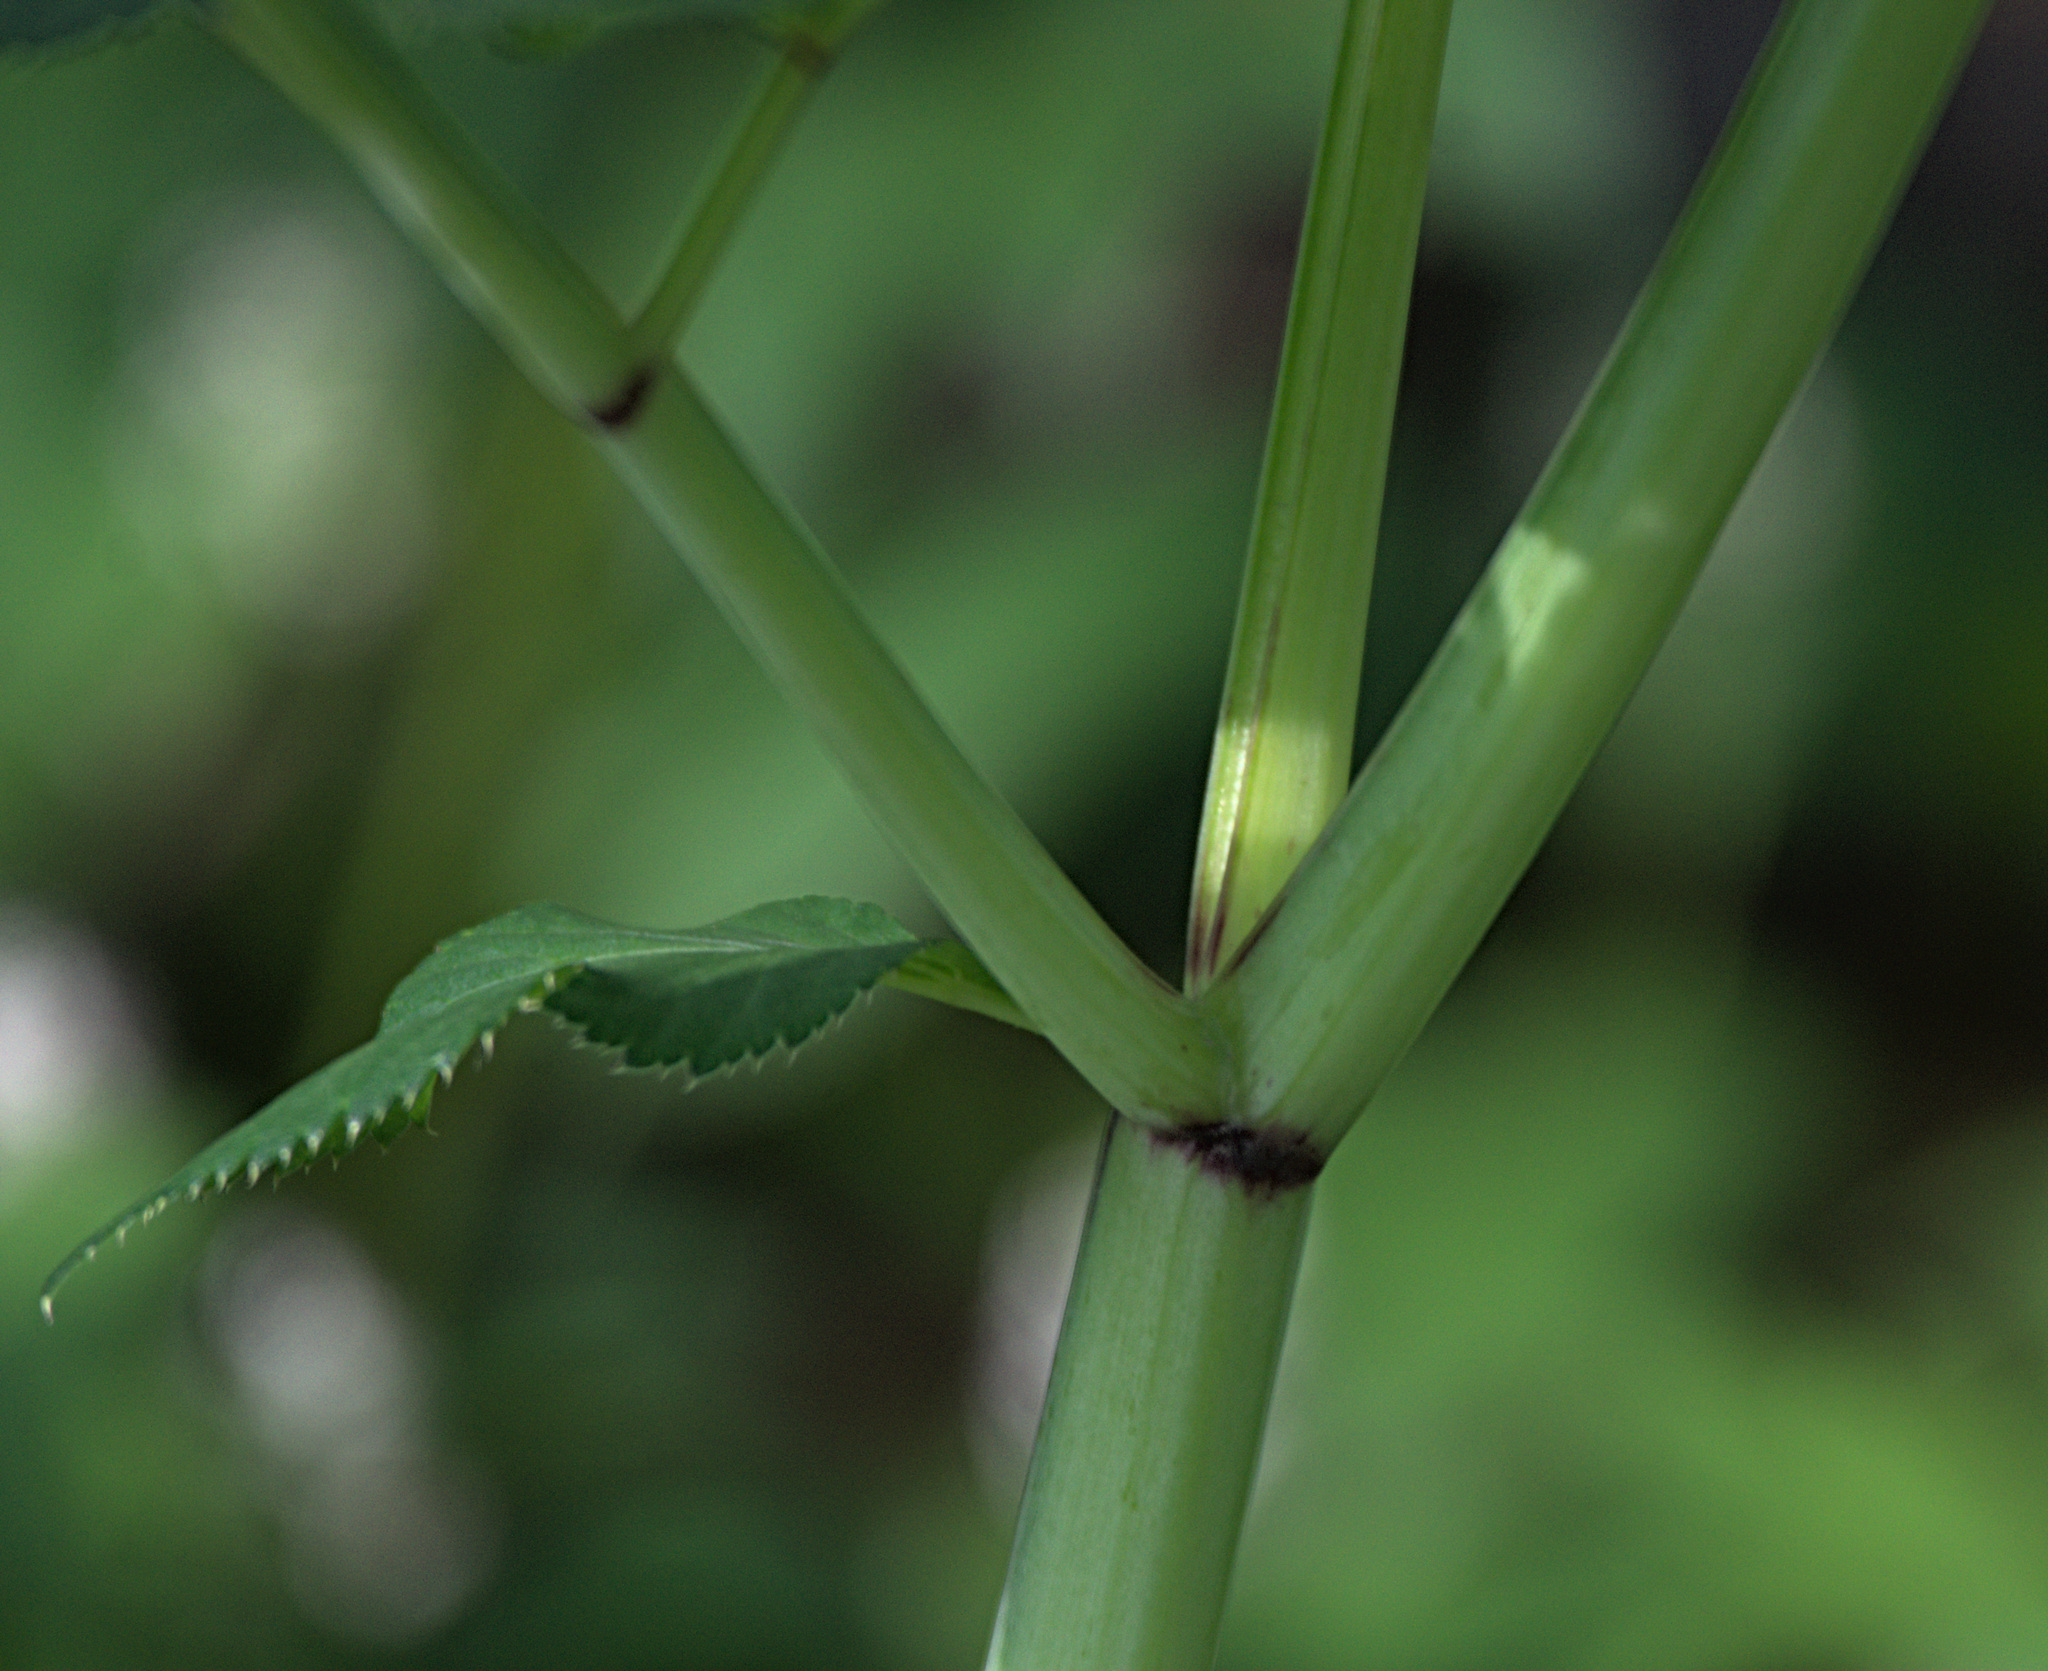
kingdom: Plantae
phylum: Tracheophyta
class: Magnoliopsida
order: Apiales
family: Apiaceae
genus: Angelica
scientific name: Angelica sylvestris
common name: Wild angelica
